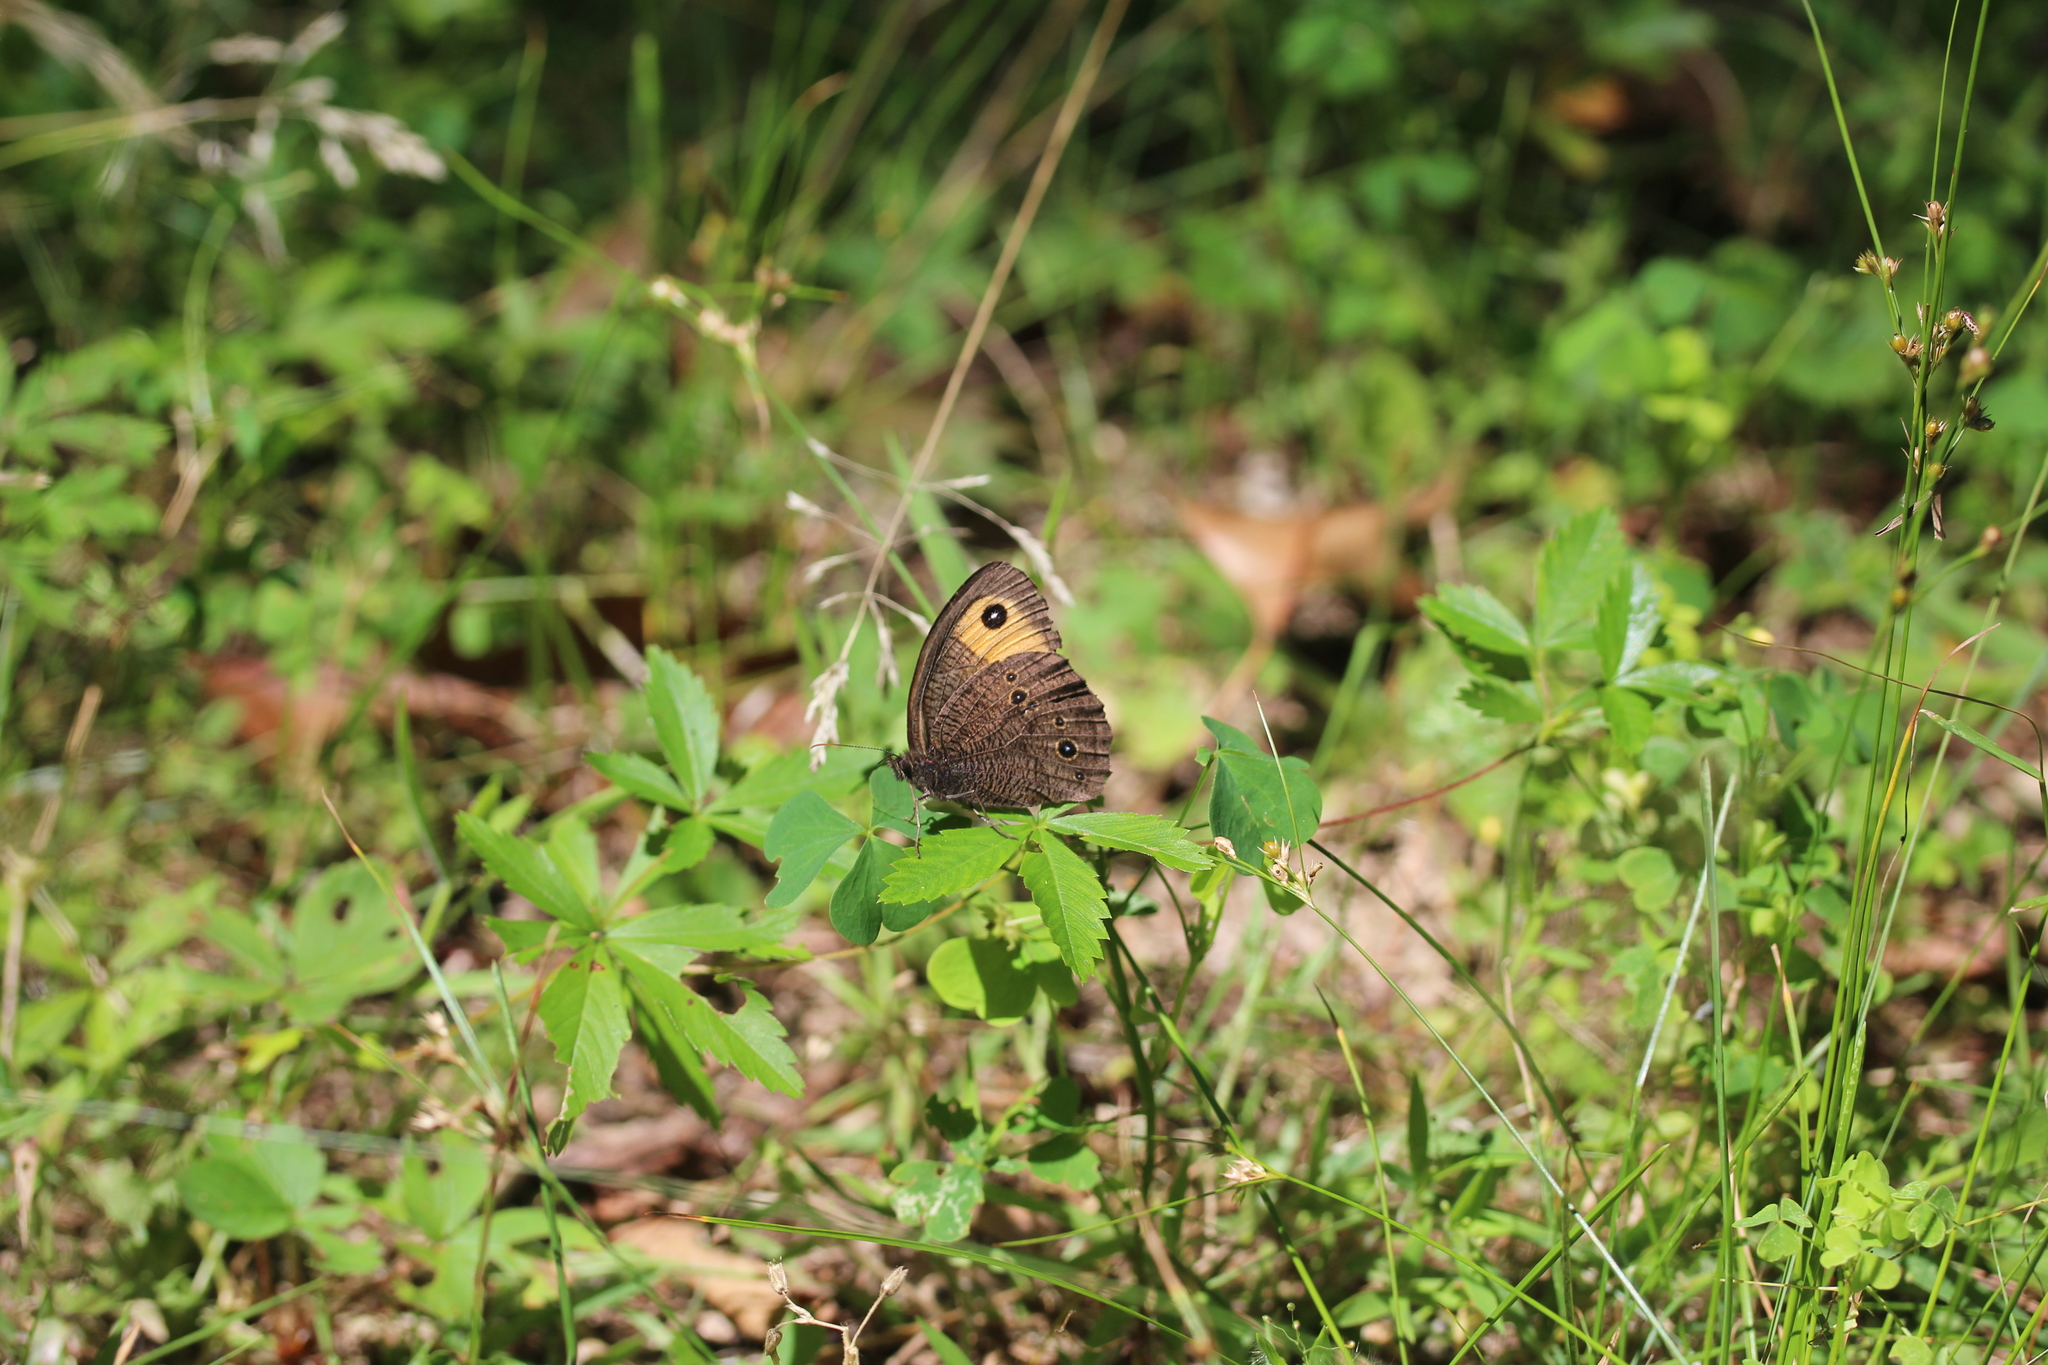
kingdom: Animalia
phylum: Arthropoda
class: Insecta
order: Lepidoptera
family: Nymphalidae
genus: Cercyonis
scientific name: Cercyonis pegala
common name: Common wood-nymph
